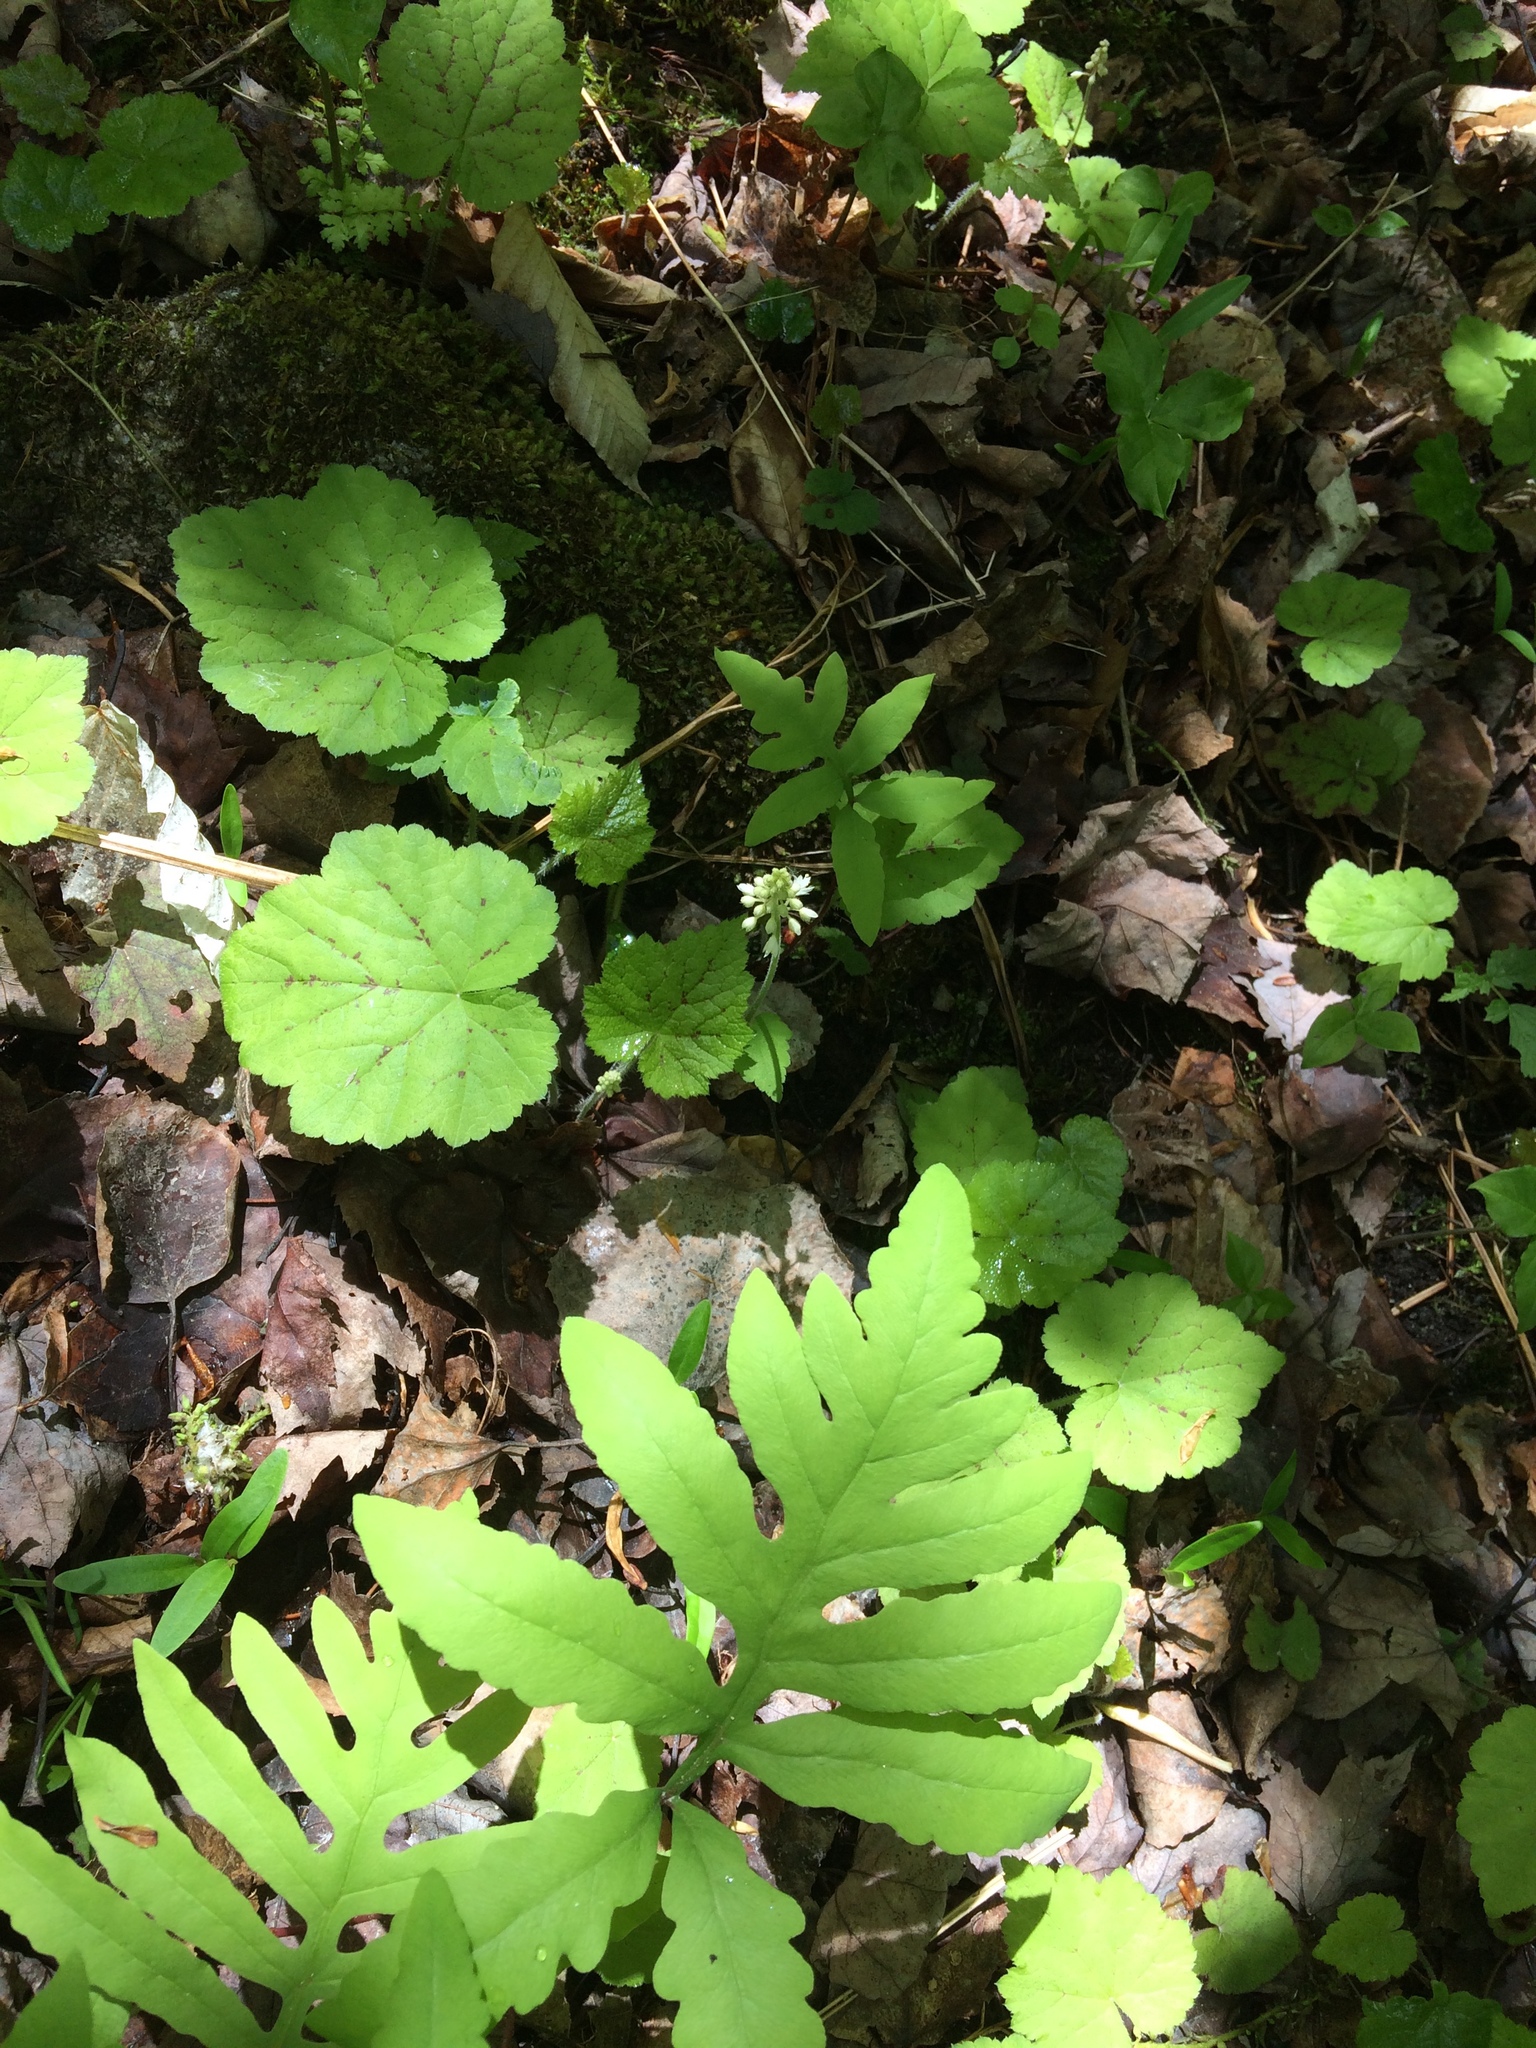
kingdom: Plantae
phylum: Tracheophyta
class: Magnoliopsida
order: Saxifragales
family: Saxifragaceae
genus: Tiarella
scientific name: Tiarella stolonifera
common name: Stoloniferous foamflower
